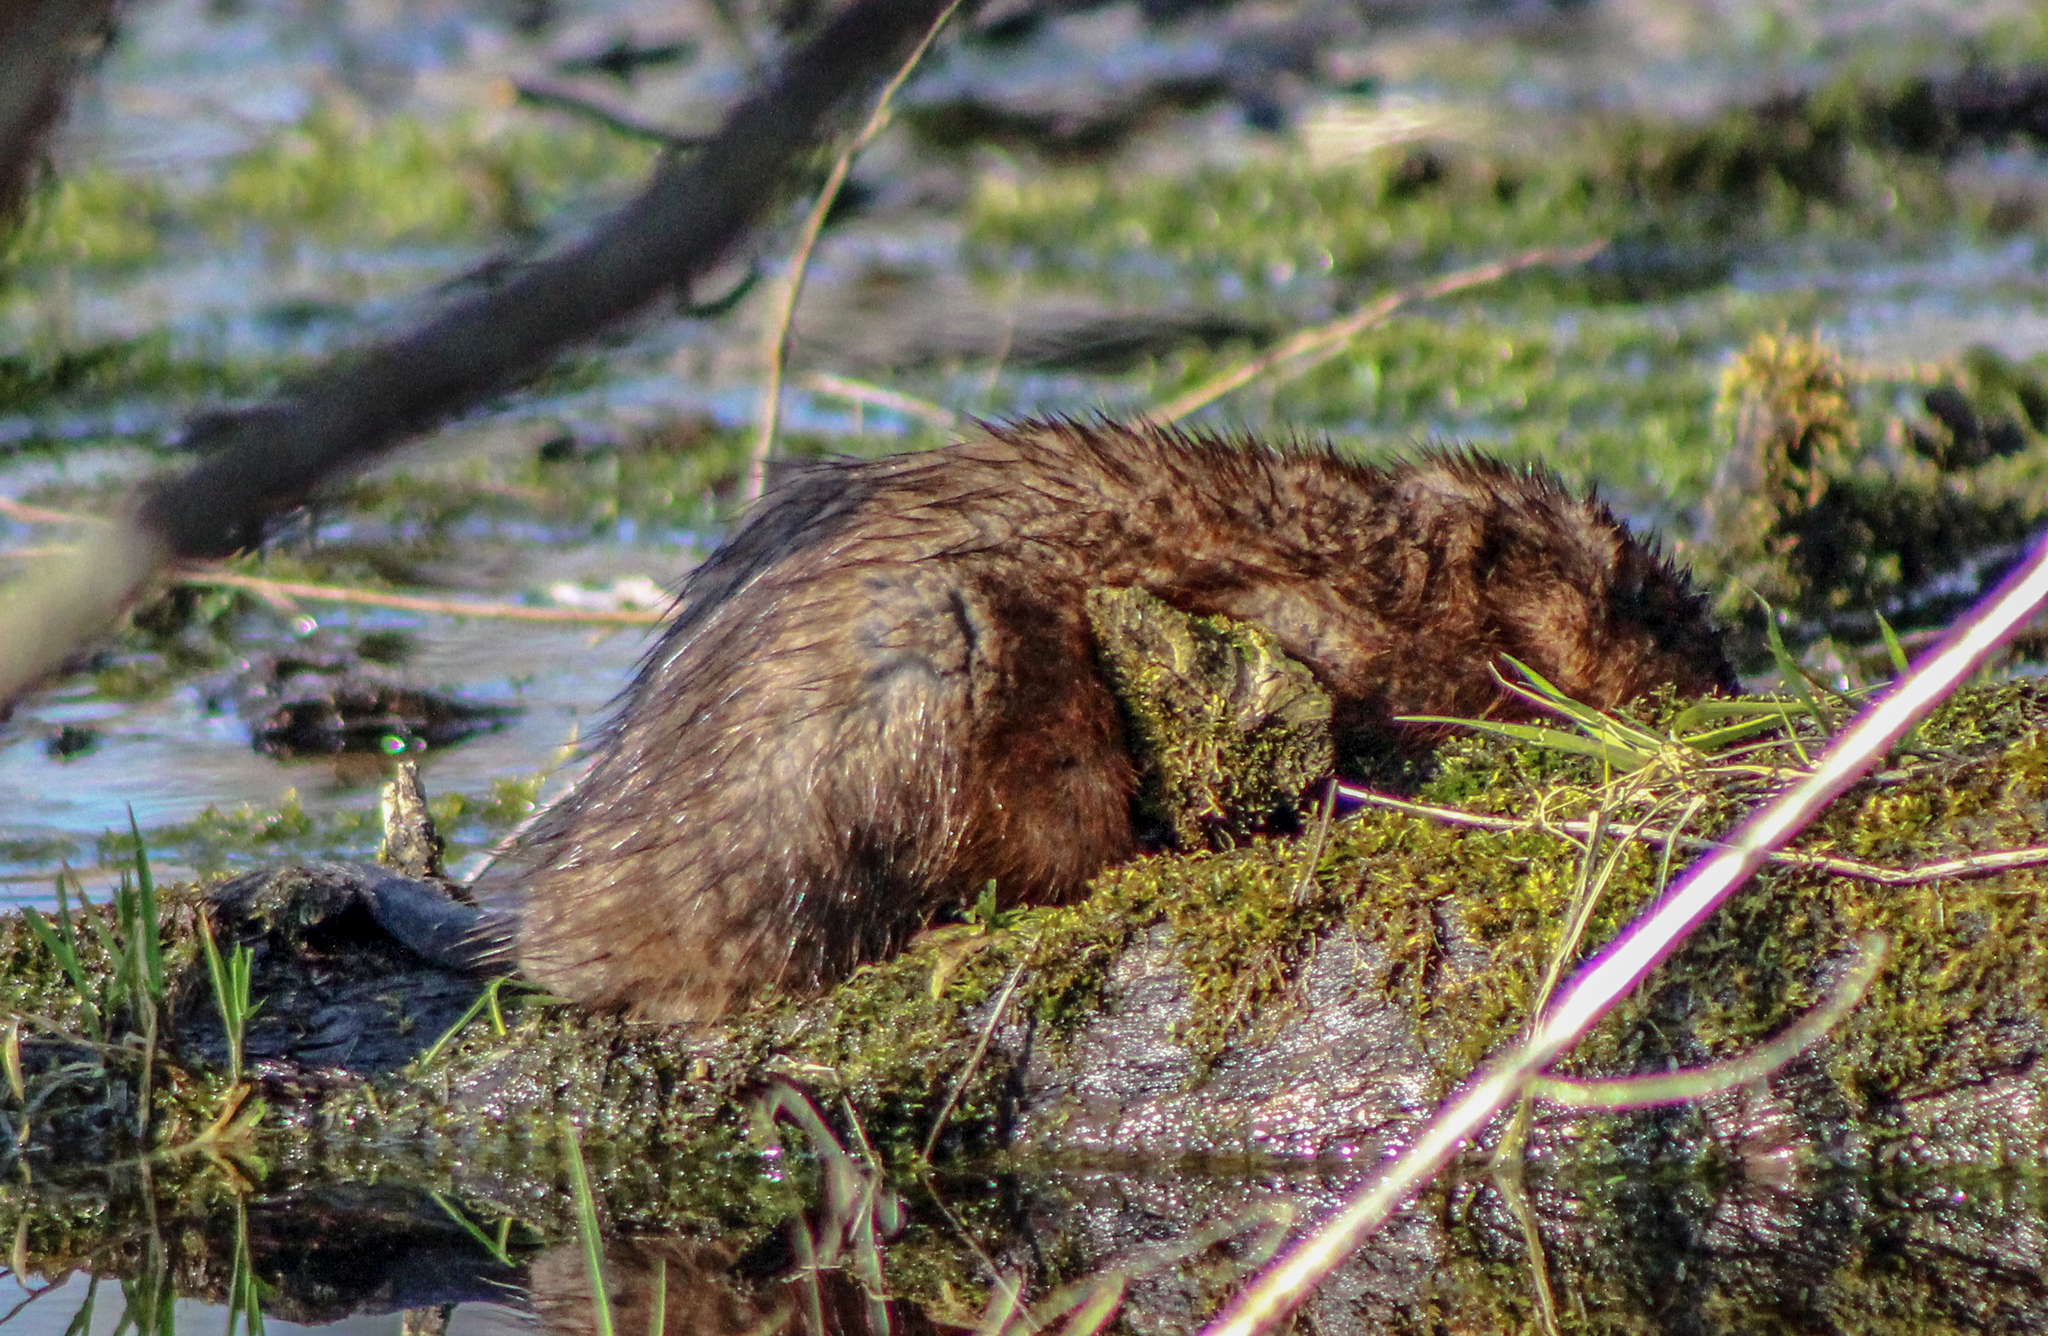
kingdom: Animalia
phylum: Chordata
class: Mammalia
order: Rodentia
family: Cricetidae
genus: Ondatra
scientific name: Ondatra zibethicus
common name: Muskrat
